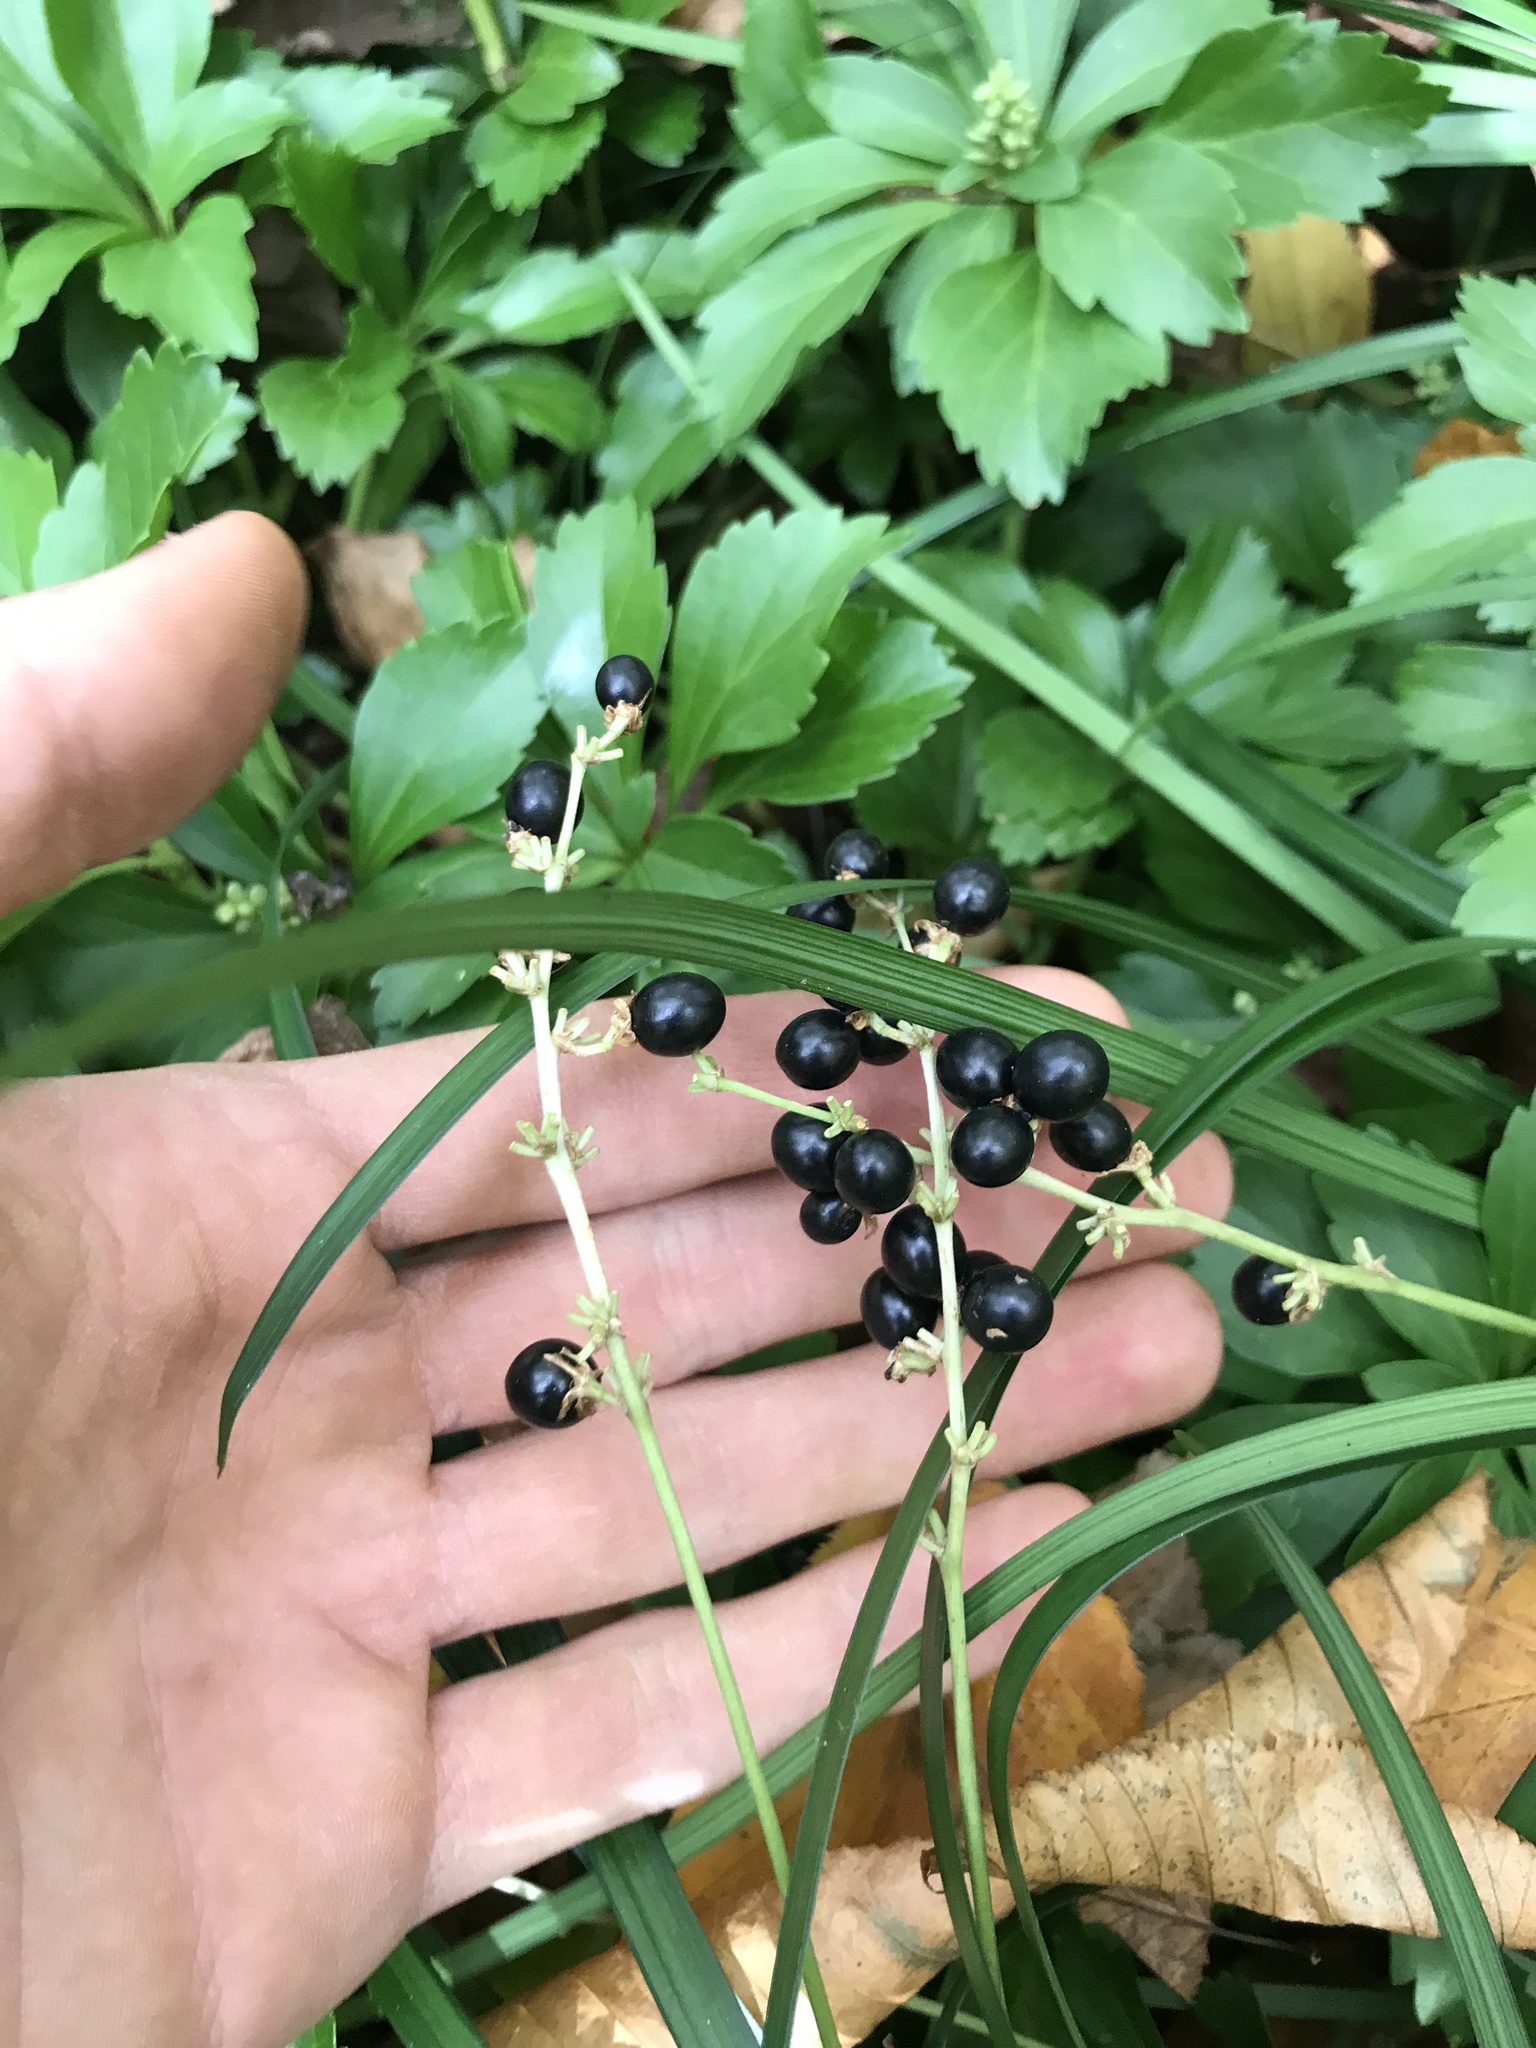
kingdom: Plantae
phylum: Tracheophyta
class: Liliopsida
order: Asparagales
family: Asparagaceae
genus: Liriope
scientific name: Liriope spicata
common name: Creeping liriope
